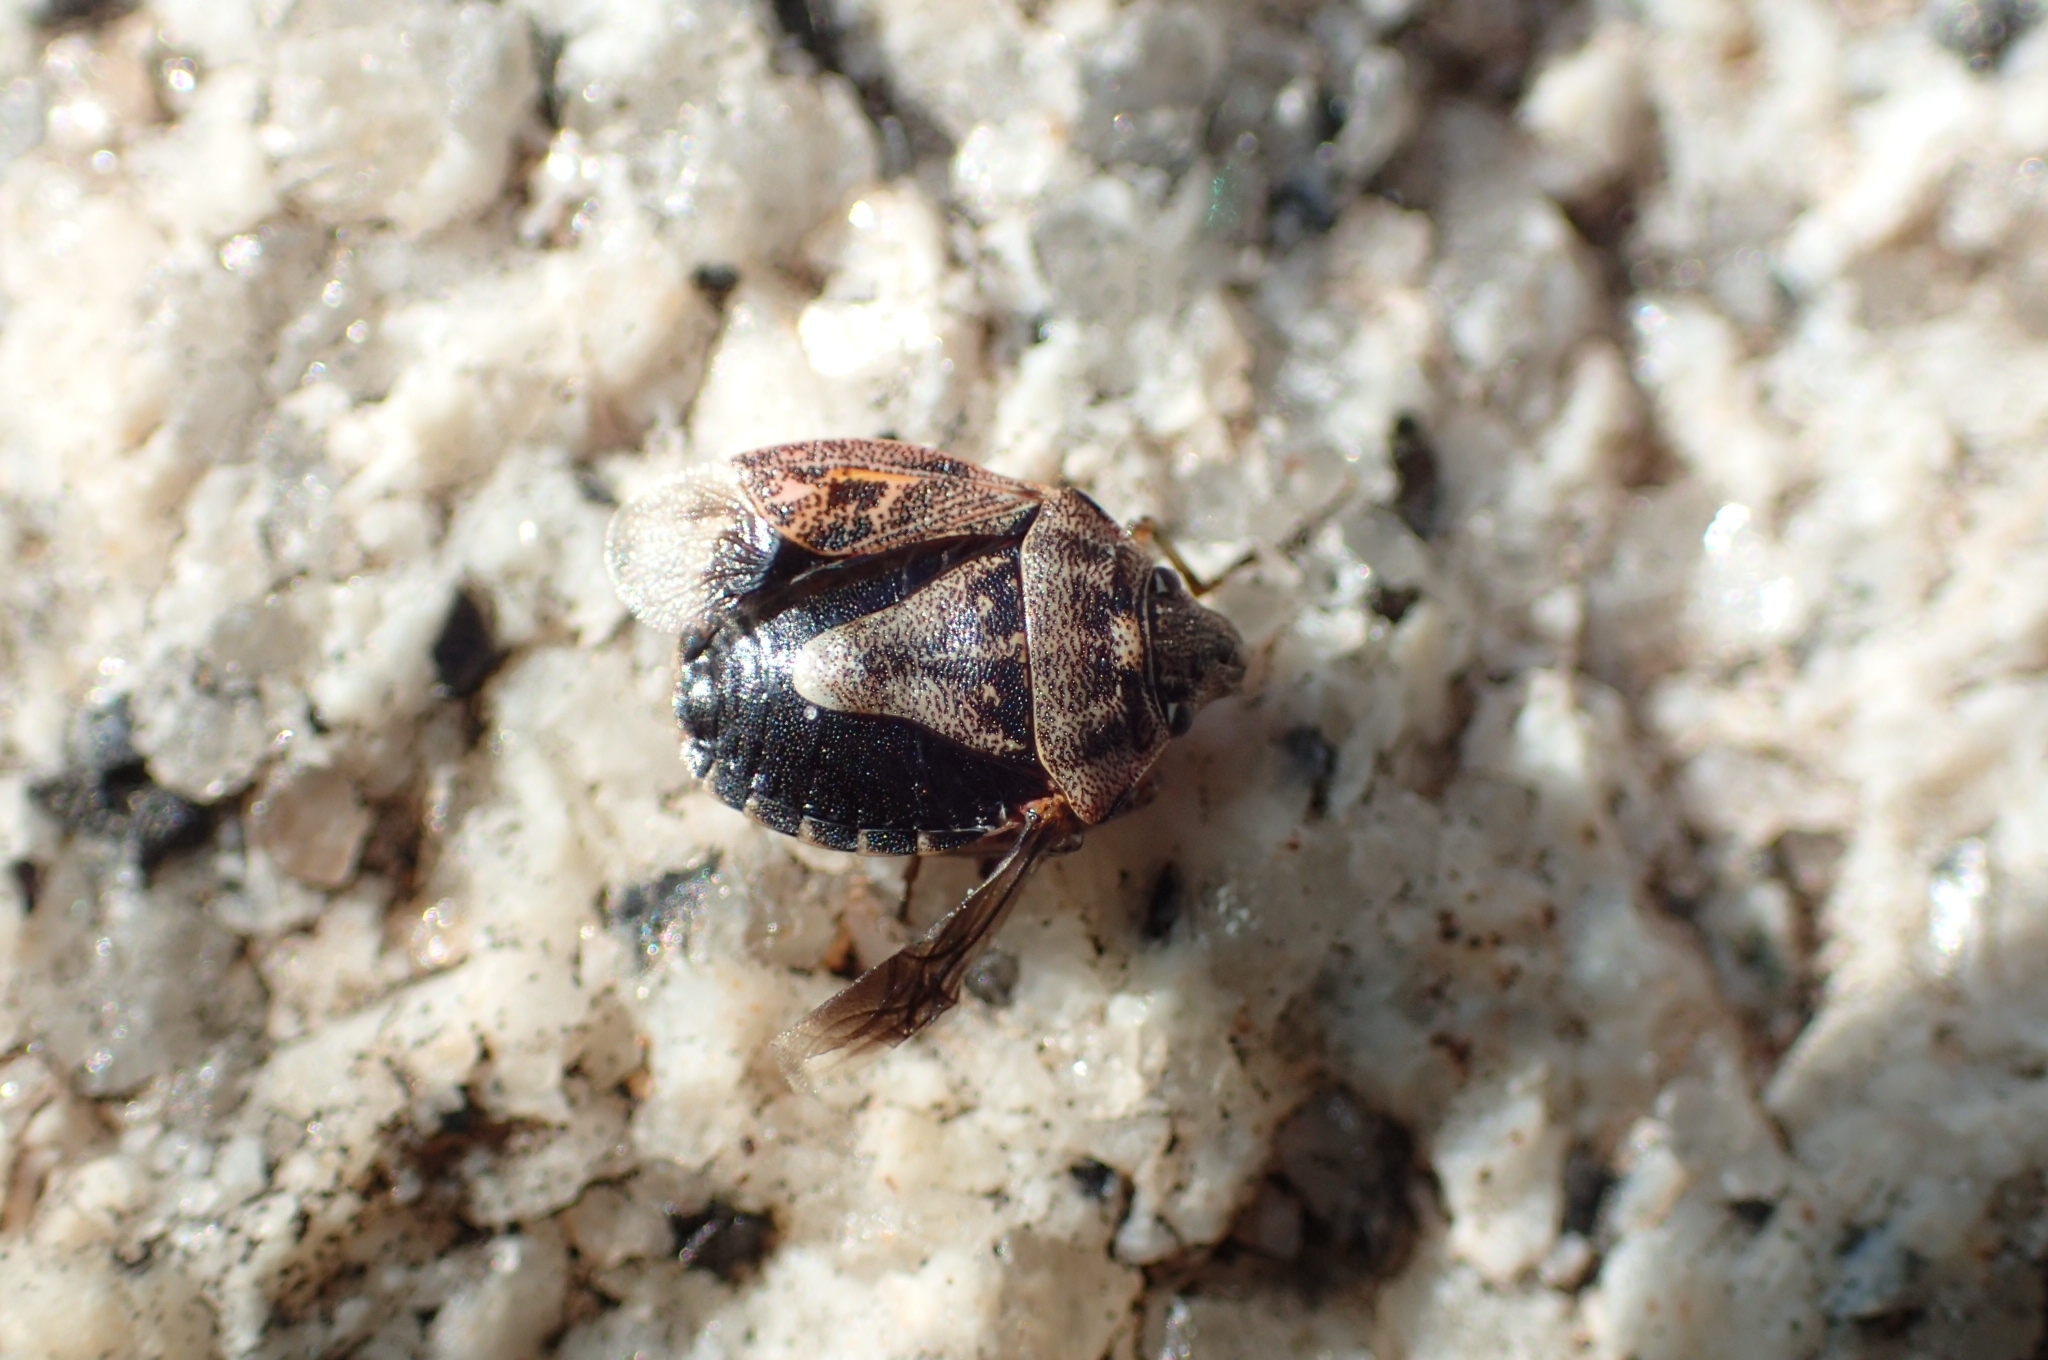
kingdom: Animalia
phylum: Arthropoda
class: Insecta
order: Hemiptera
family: Pentatomidae
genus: Holcogaster
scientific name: Holcogaster fibulata
